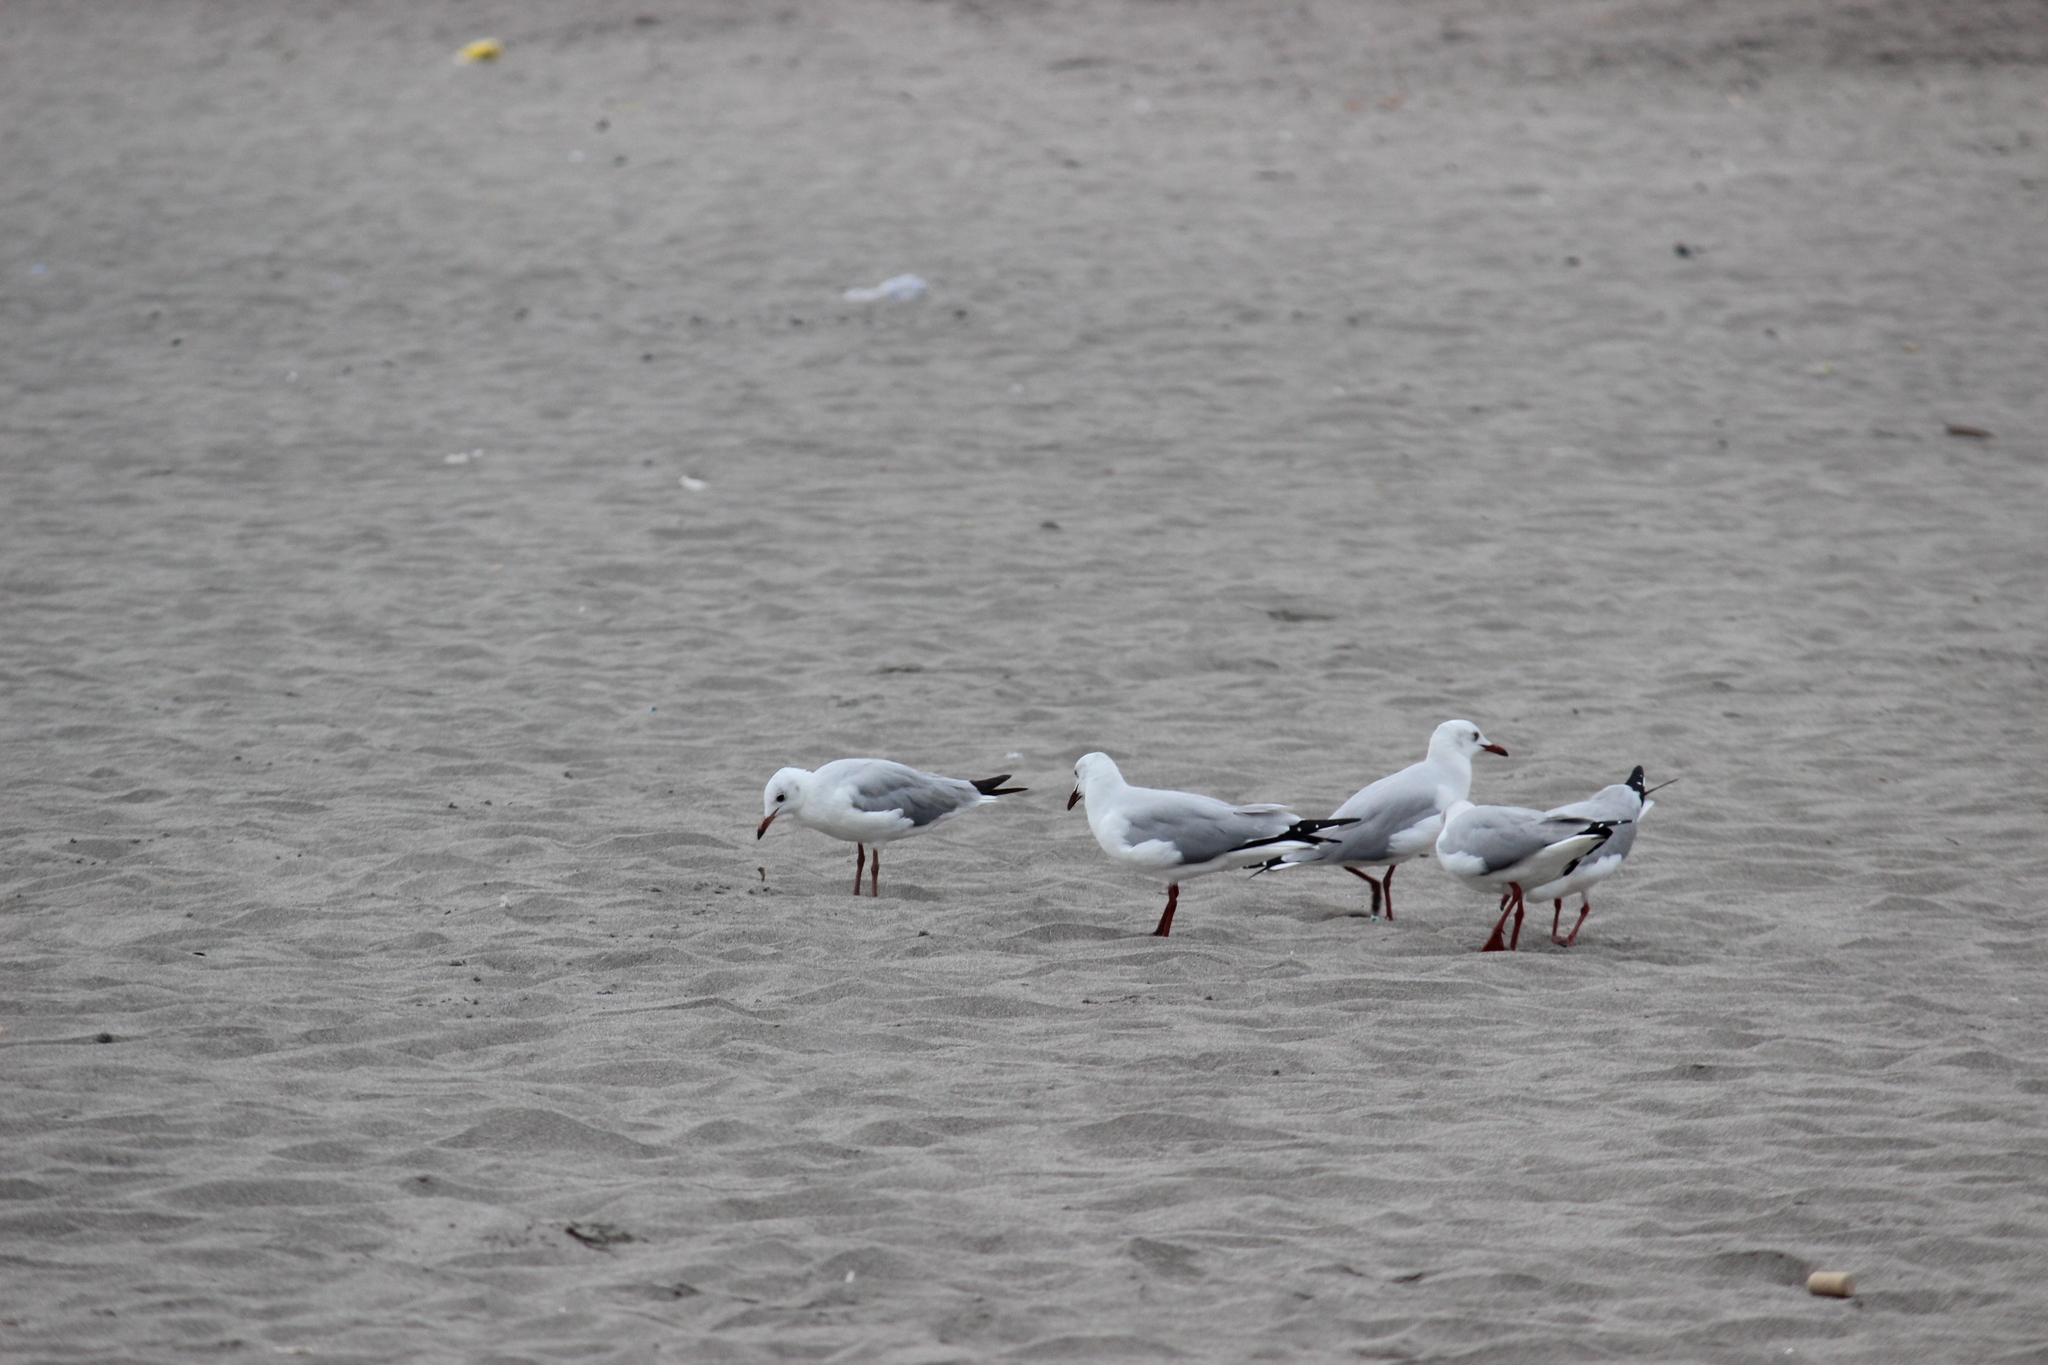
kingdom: Animalia
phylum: Chordata
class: Aves
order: Charadriiformes
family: Laridae
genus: Chroicocephalus
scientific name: Chroicocephalus cirrocephalus
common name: Grey-headed gull
